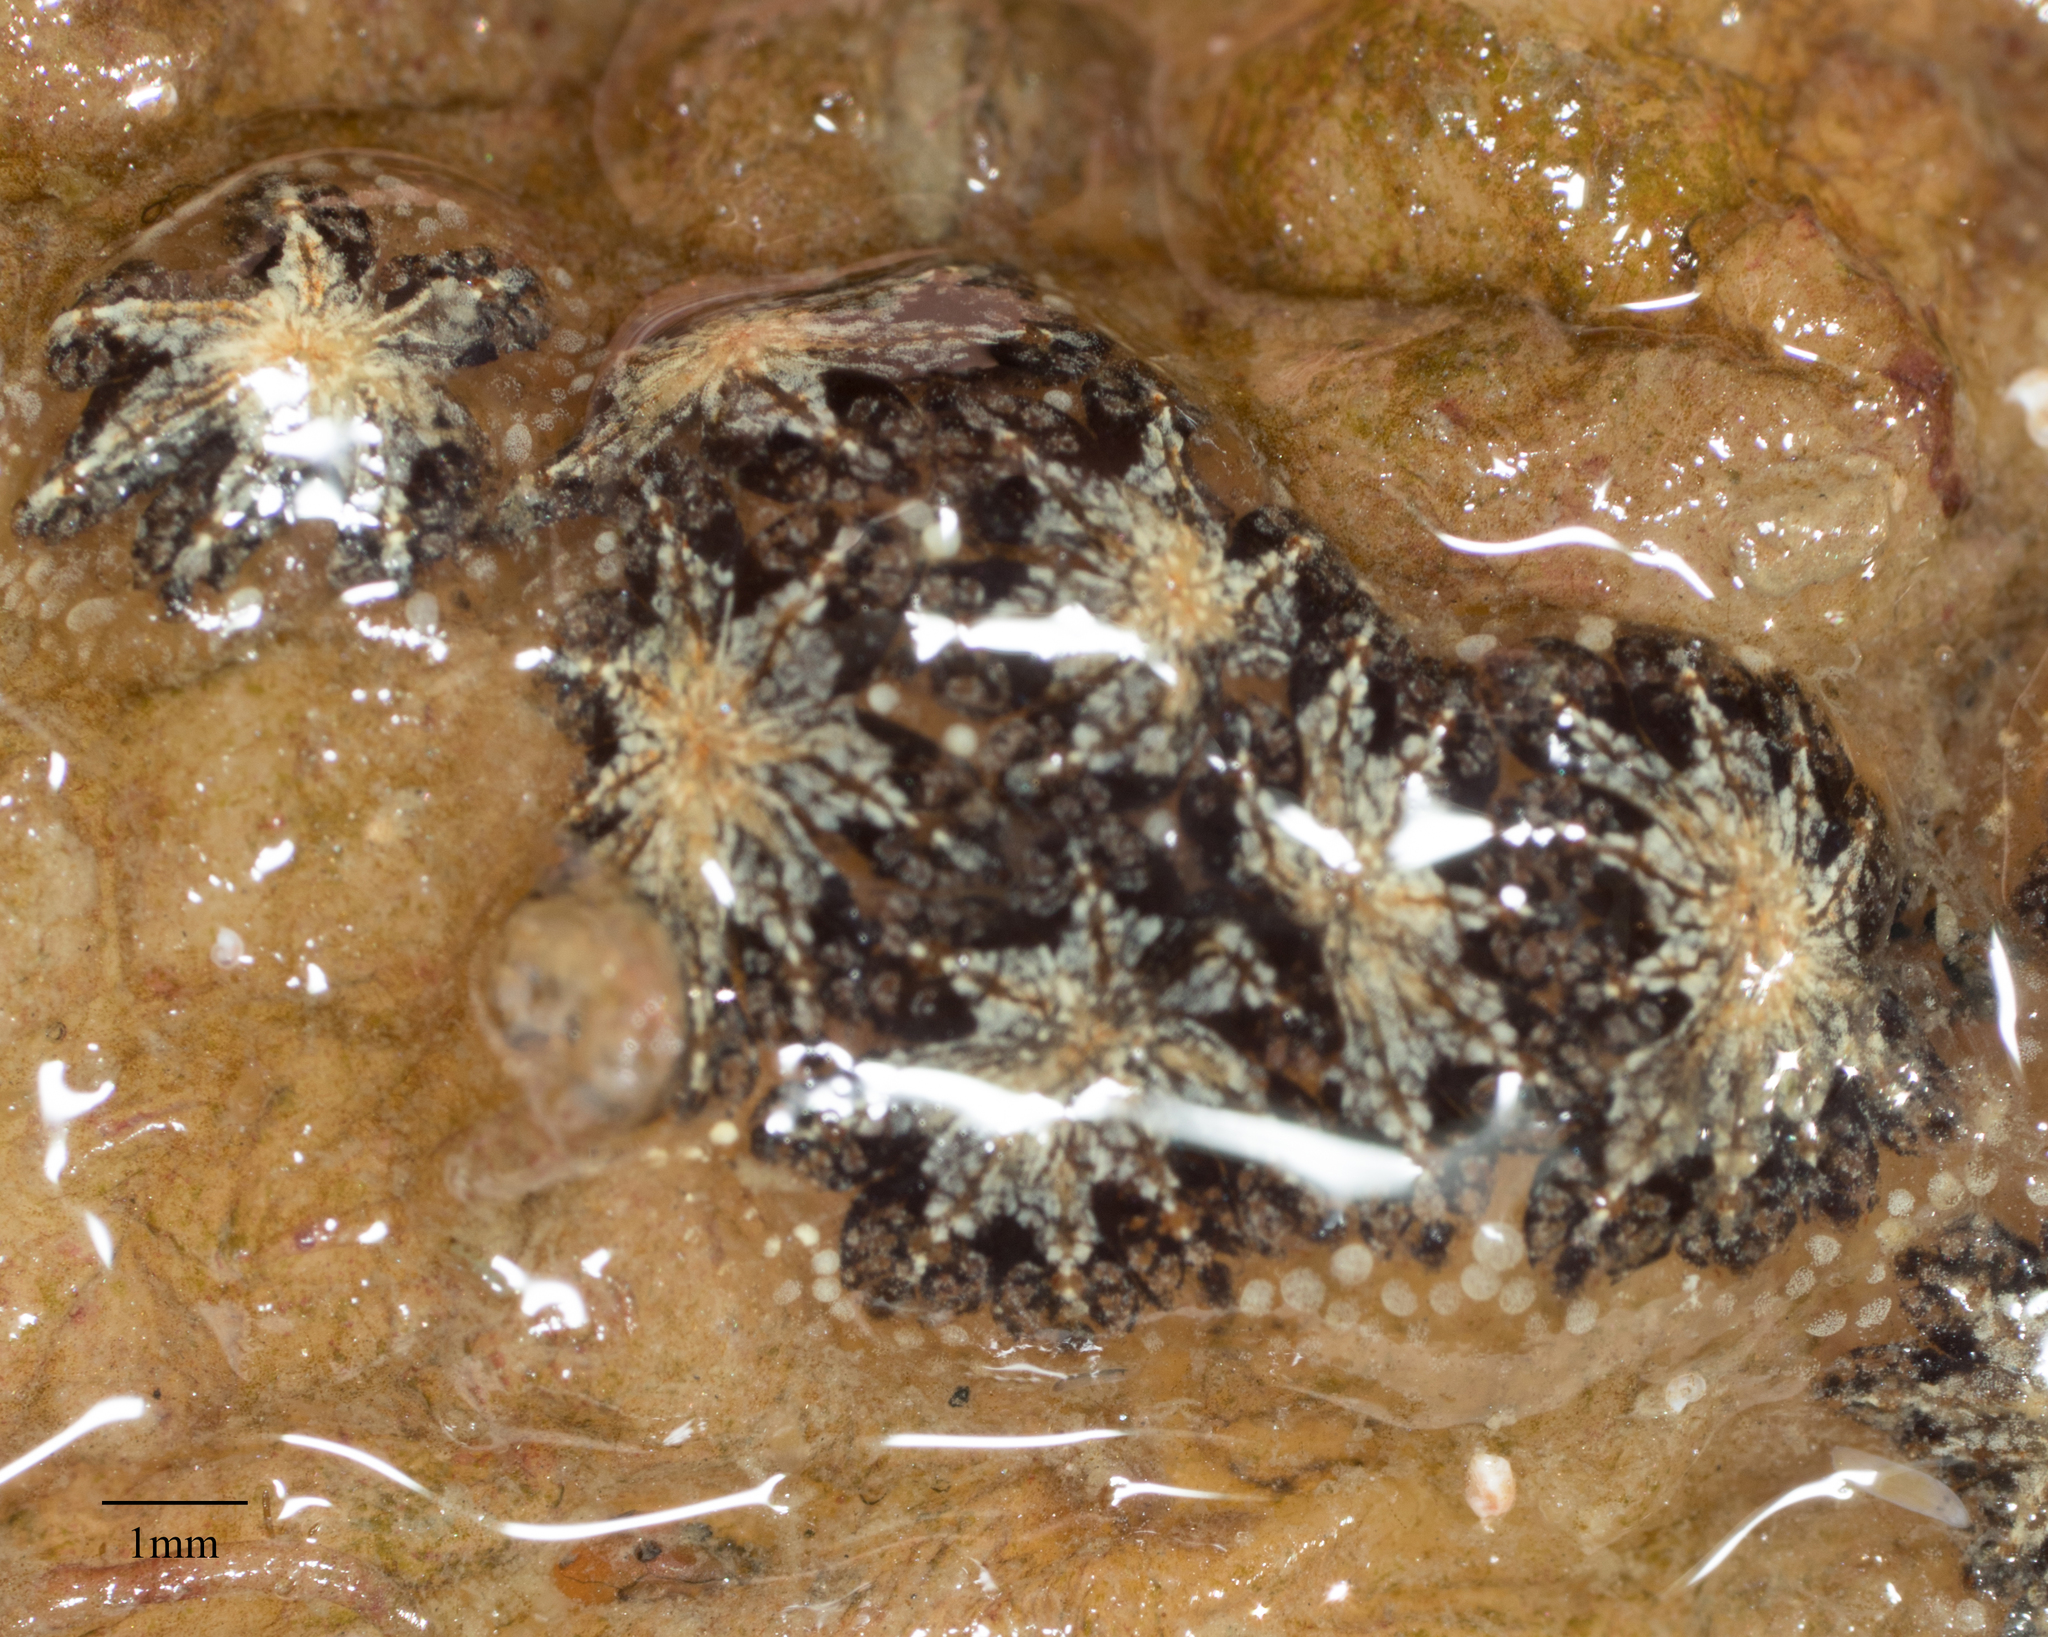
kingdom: Animalia
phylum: Chordata
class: Ascidiacea
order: Stolidobranchia
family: Styelidae
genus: Botryllus
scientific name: Botryllus schlosseri
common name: Golden star tunicate
